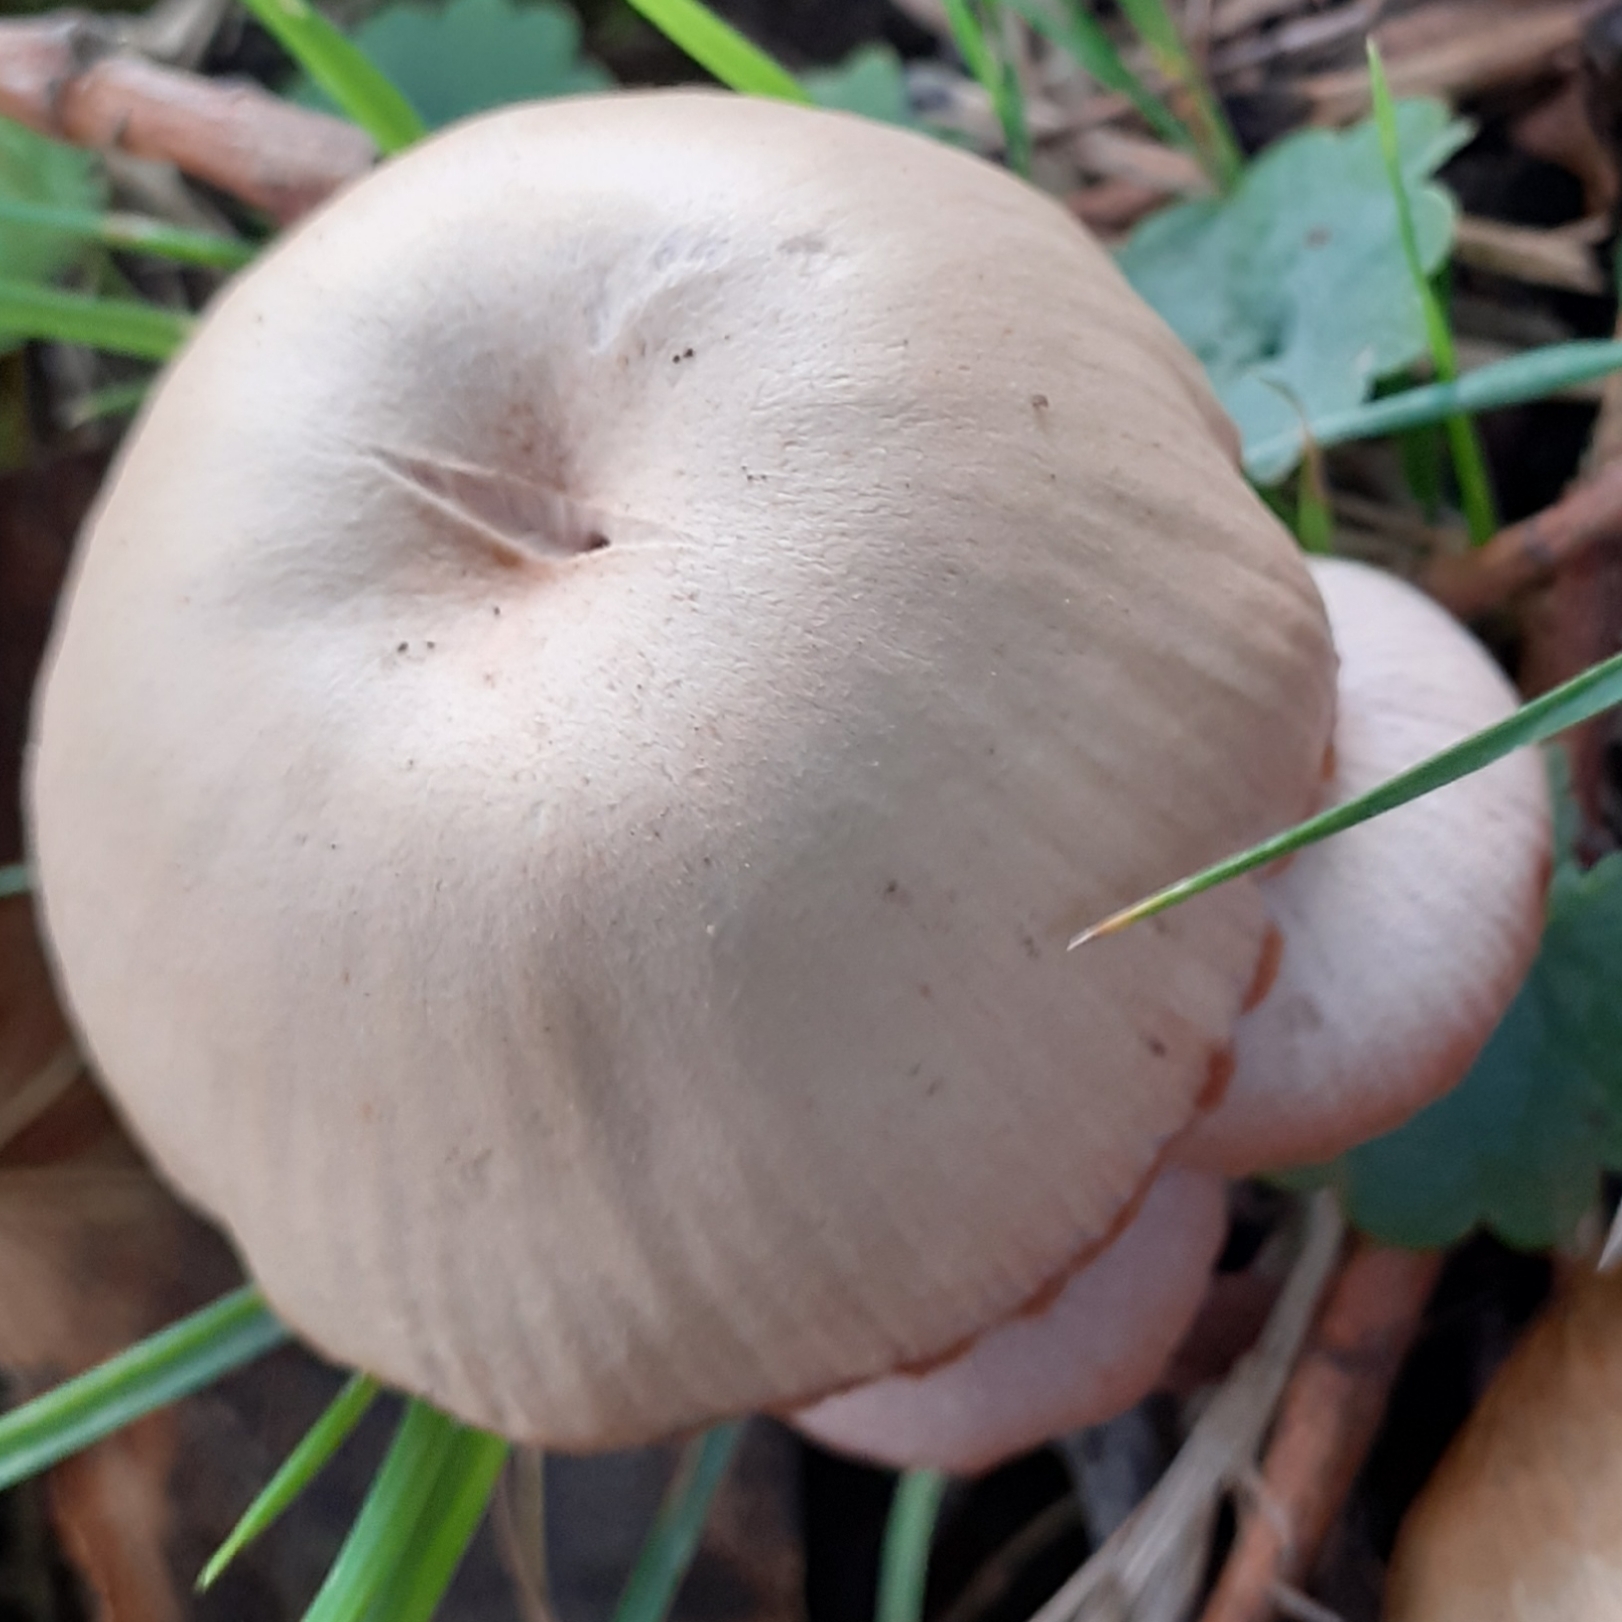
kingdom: Fungi
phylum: Basidiomycota
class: Agaricomycetes
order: Agaricales
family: Hydnangiaceae
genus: Laccaria
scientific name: Laccaria
